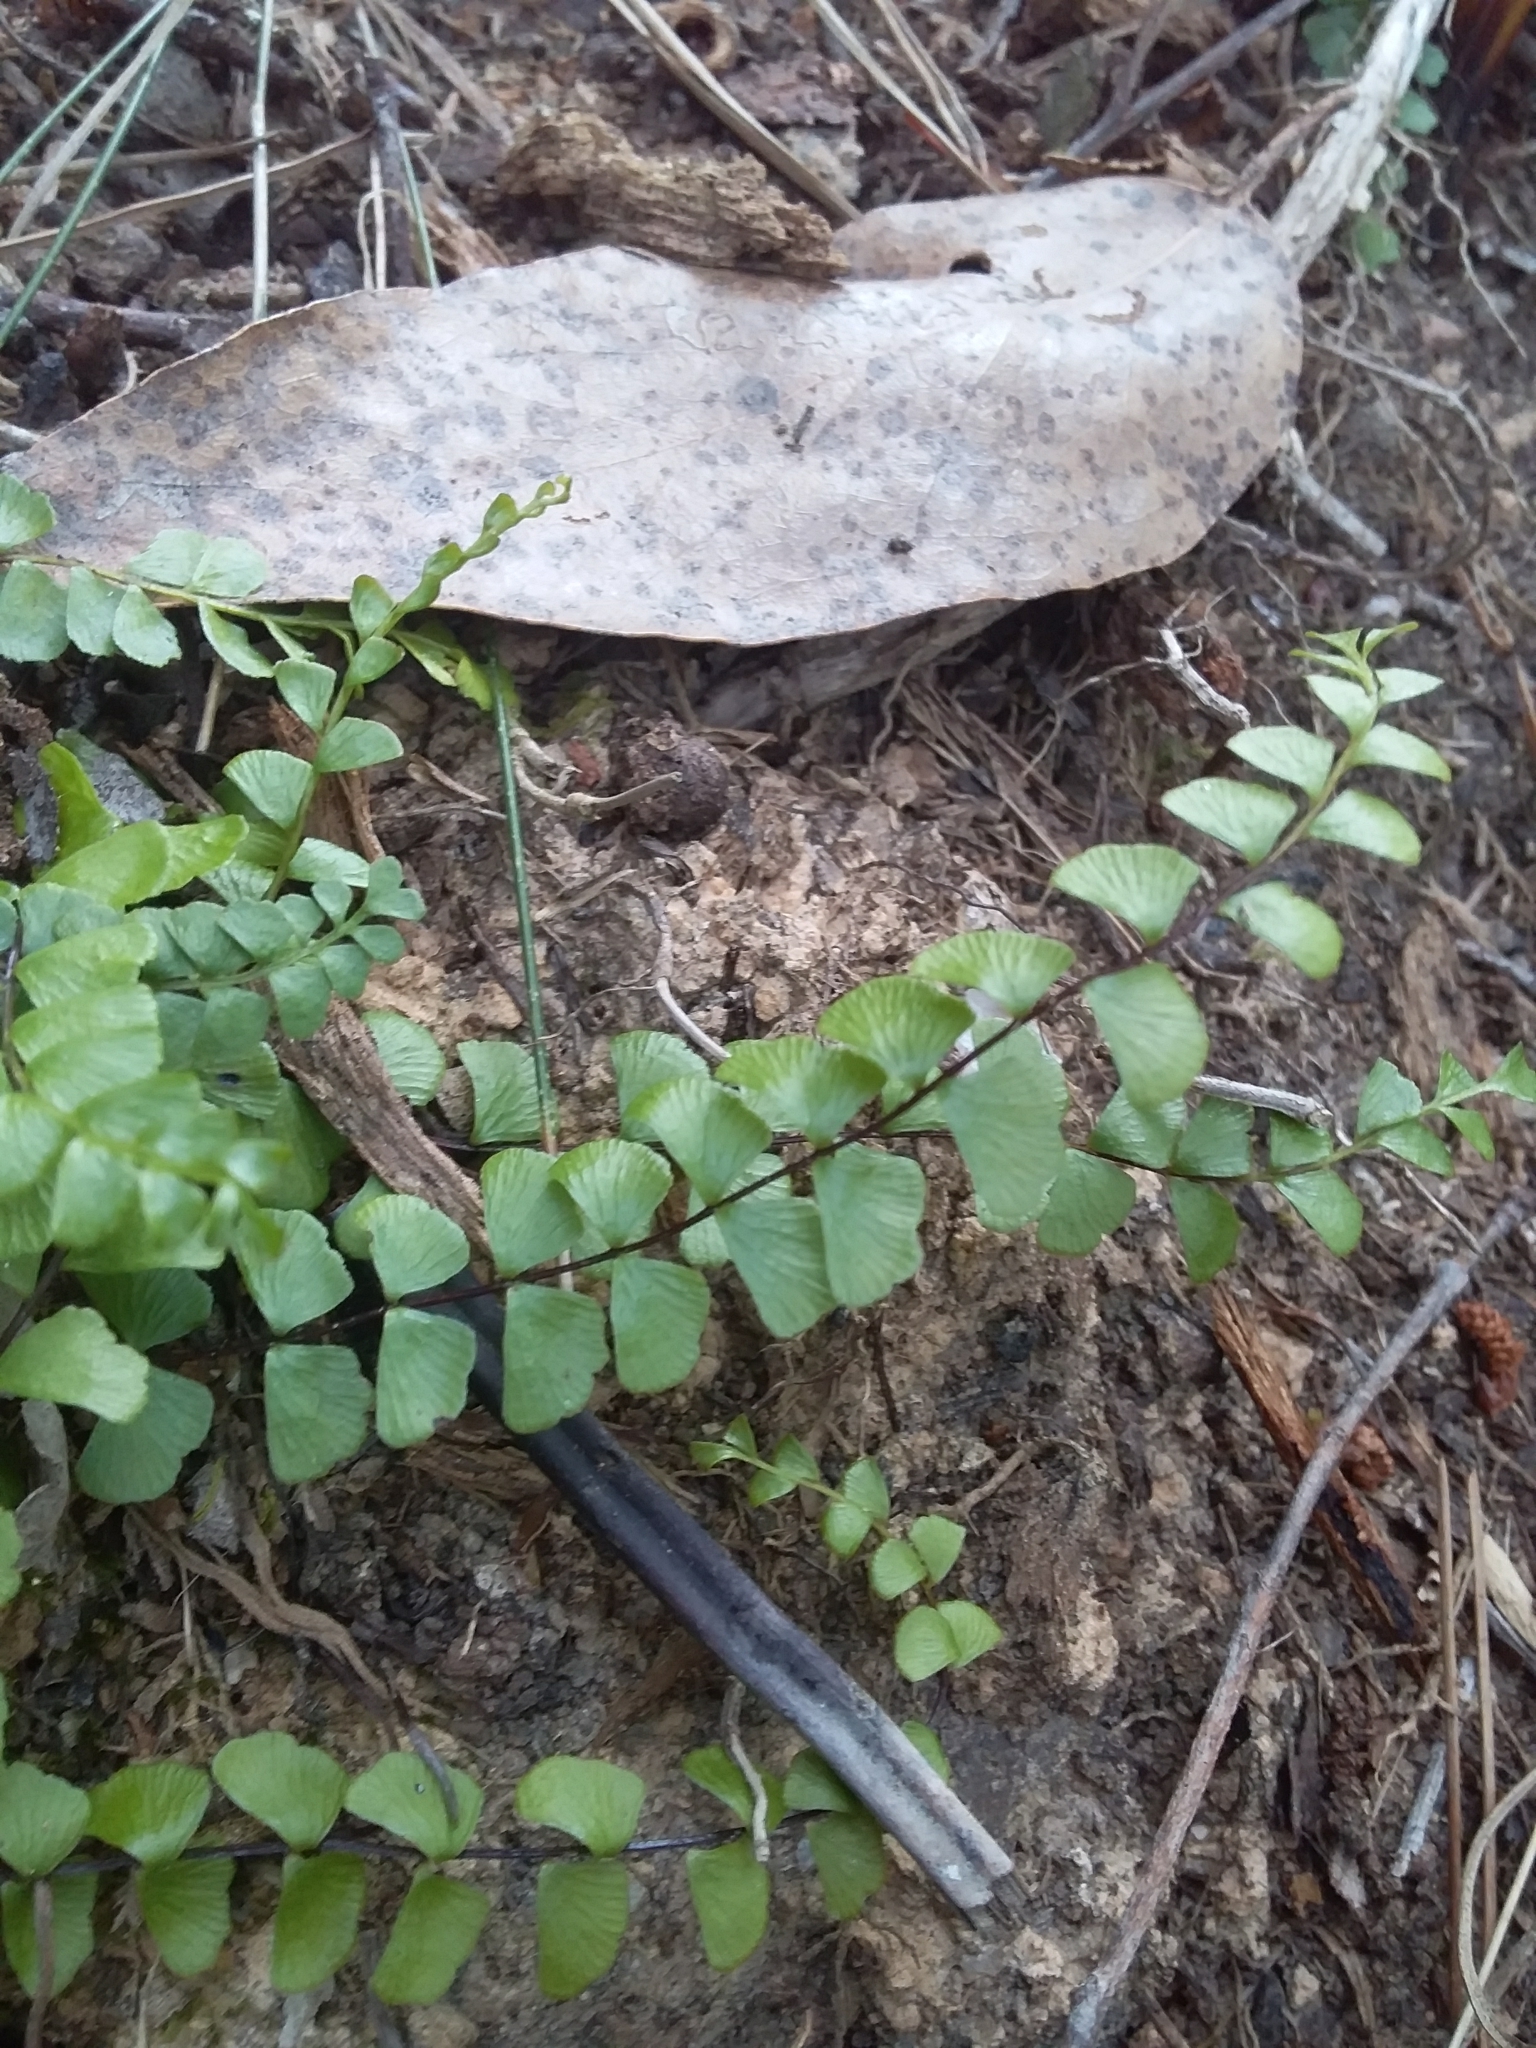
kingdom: Plantae
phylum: Tracheophyta
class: Polypodiopsida
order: Polypodiales
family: Lindsaeaceae
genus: Lindsaea
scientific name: Lindsaea linearis
